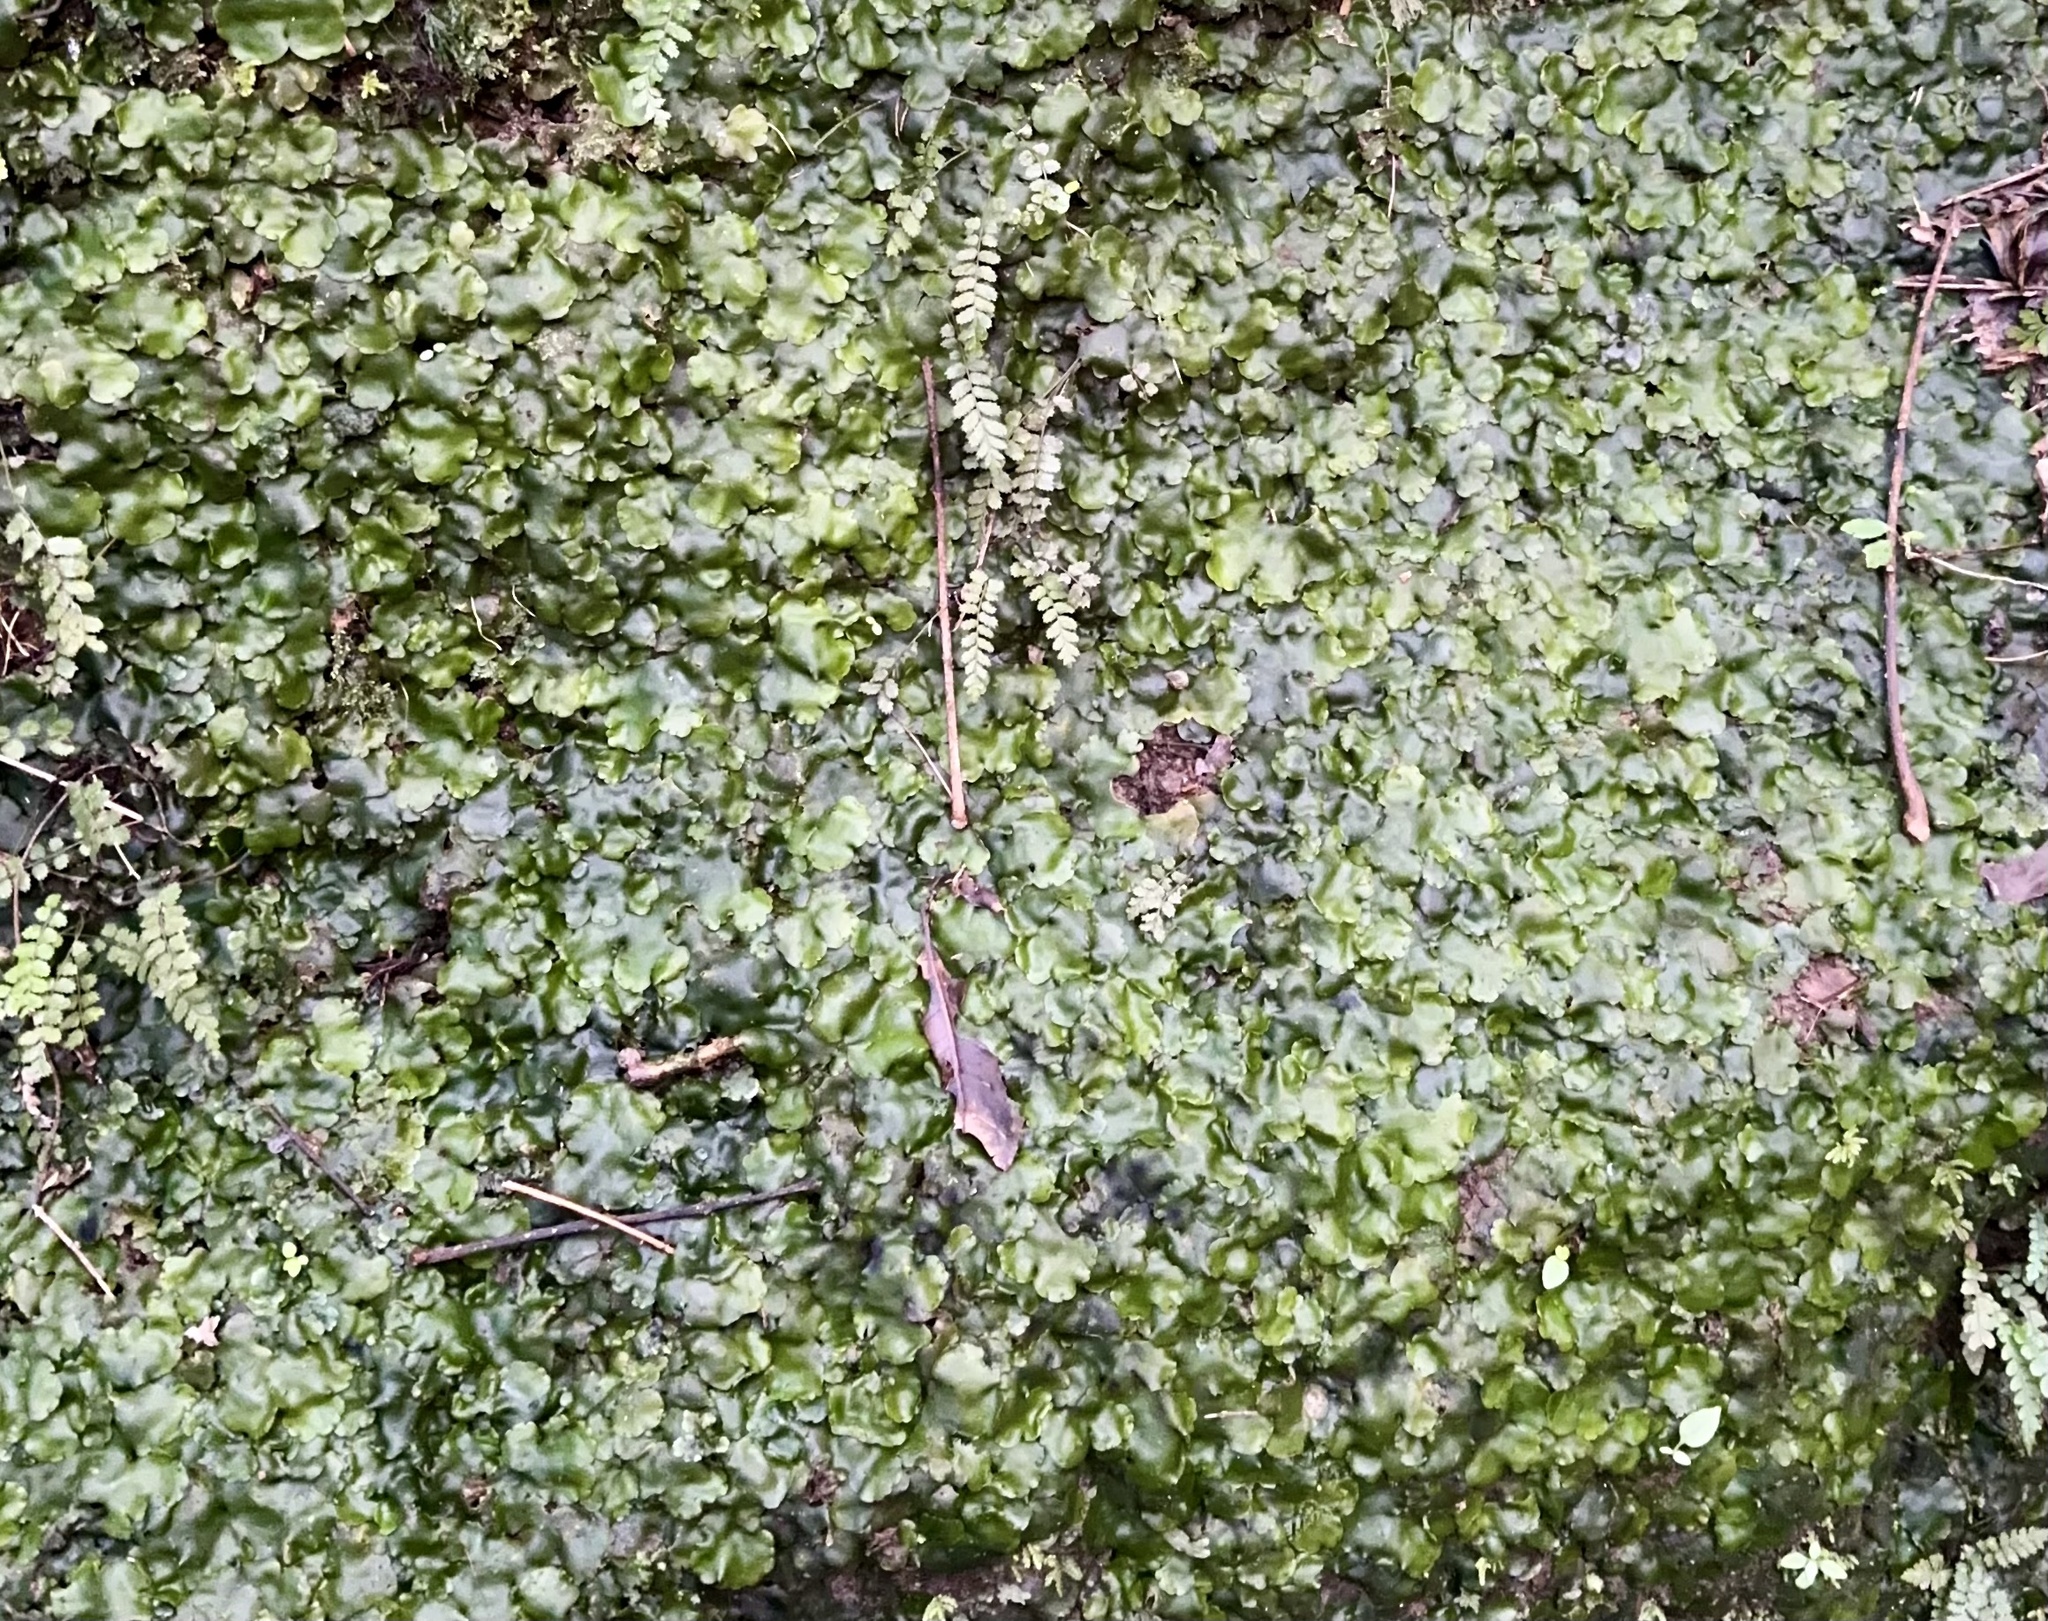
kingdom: Plantae
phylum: Marchantiophyta
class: Marchantiopsida
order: Marchantiales
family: Monocleaceae
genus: Monoclea
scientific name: Monoclea forsteri
